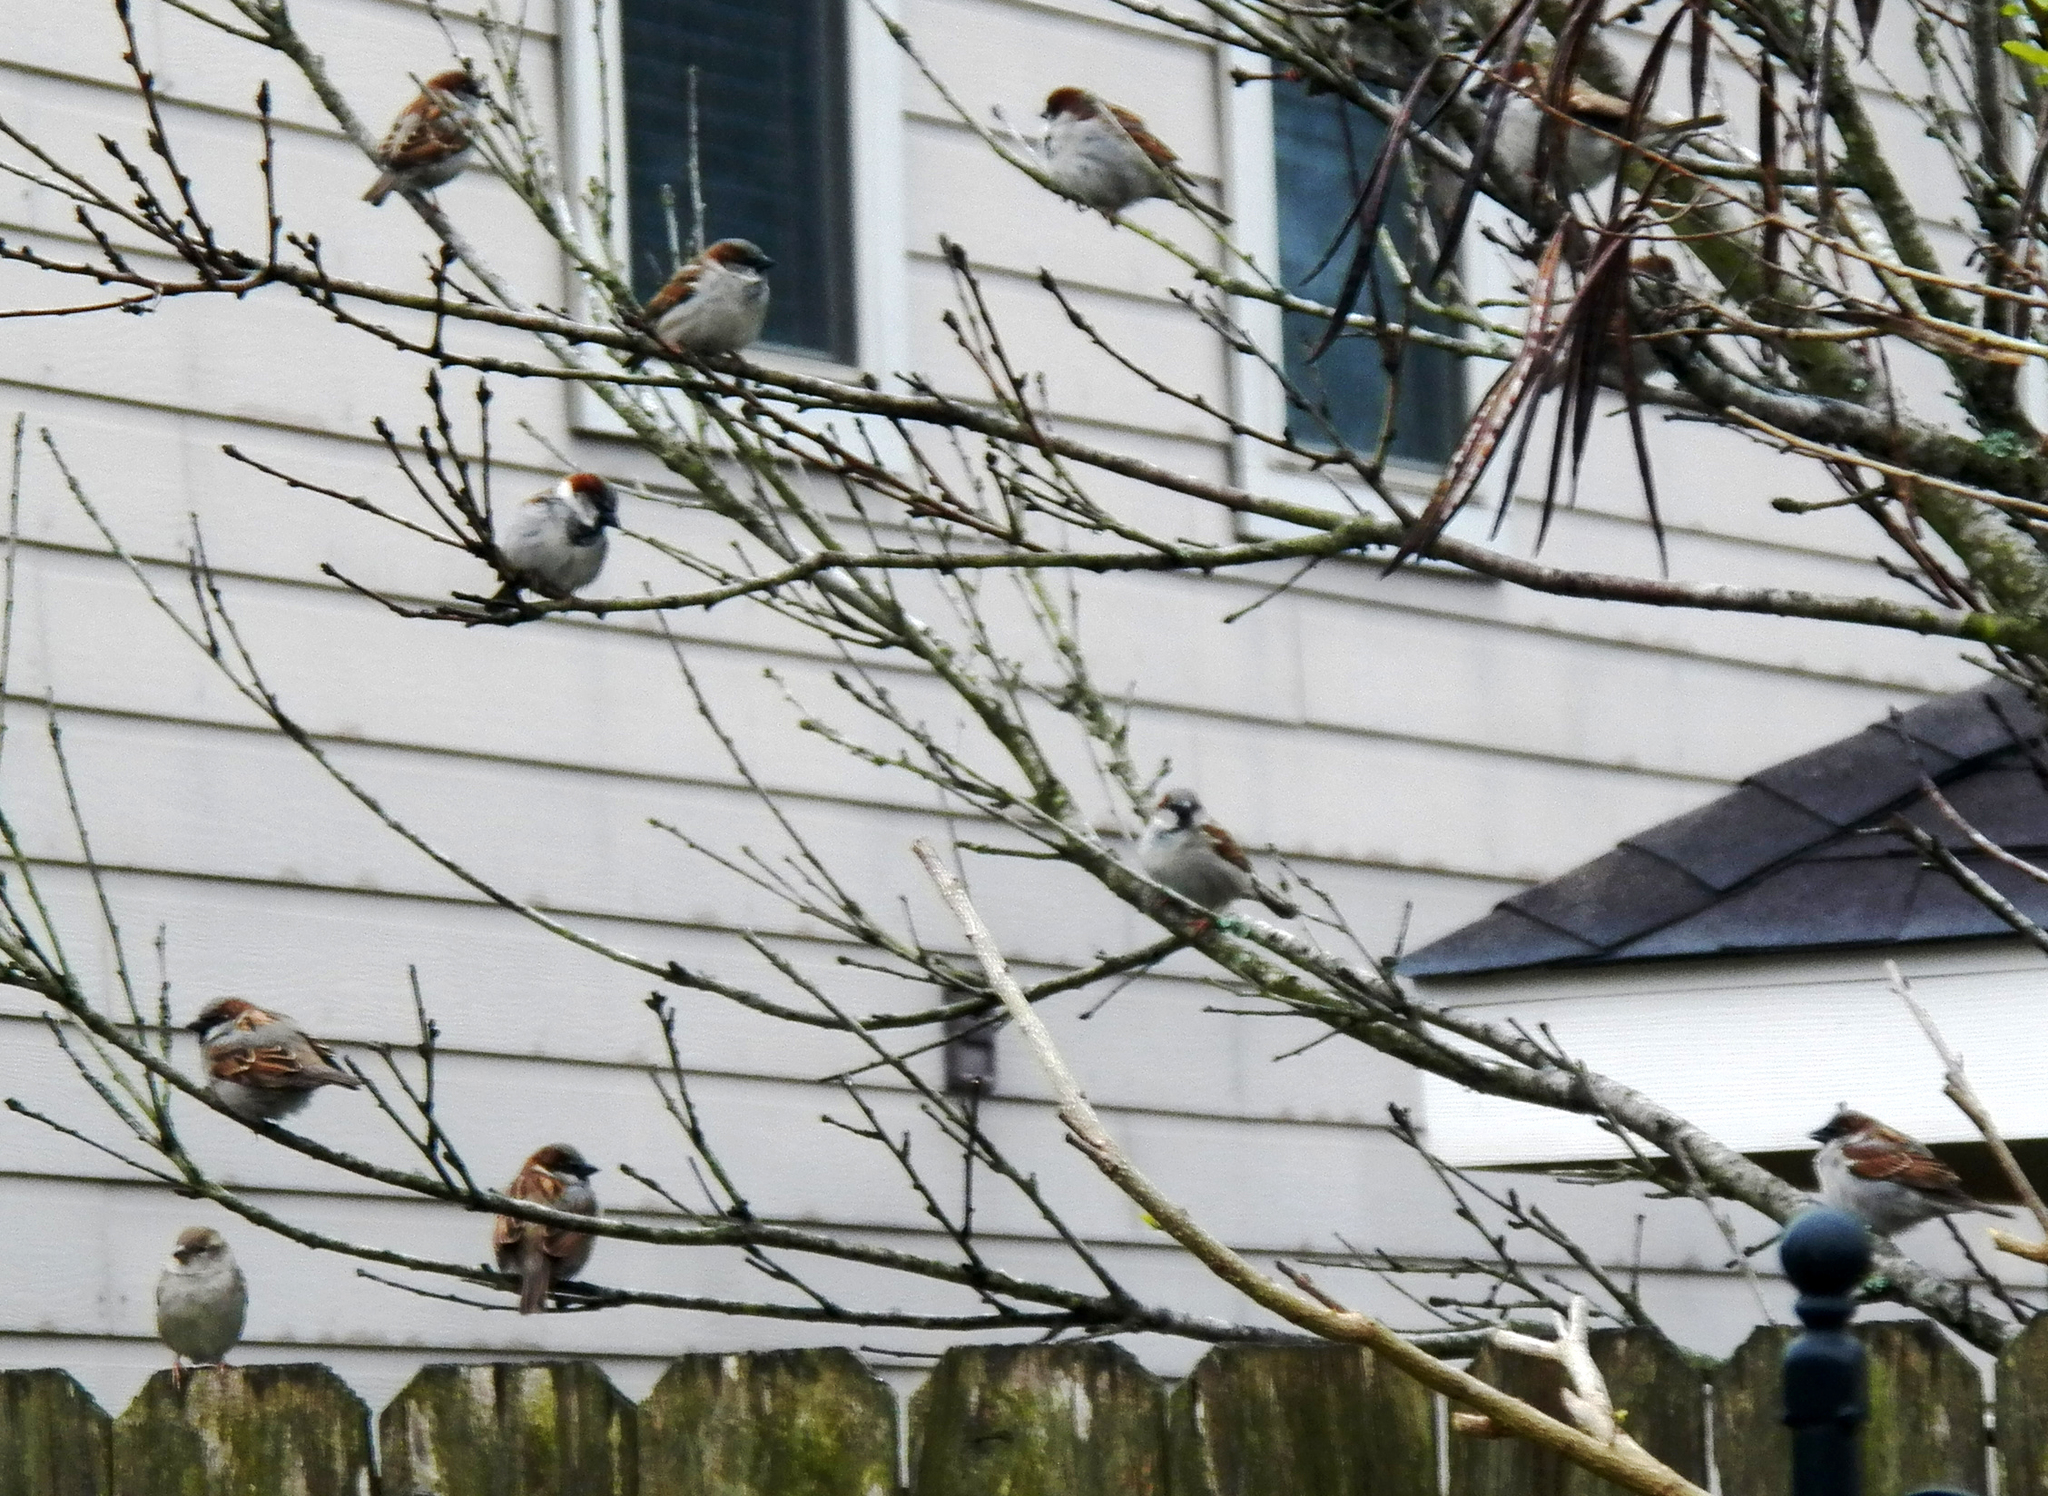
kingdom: Animalia
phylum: Chordata
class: Aves
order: Passeriformes
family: Passeridae
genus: Passer
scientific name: Passer domesticus
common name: House sparrow
